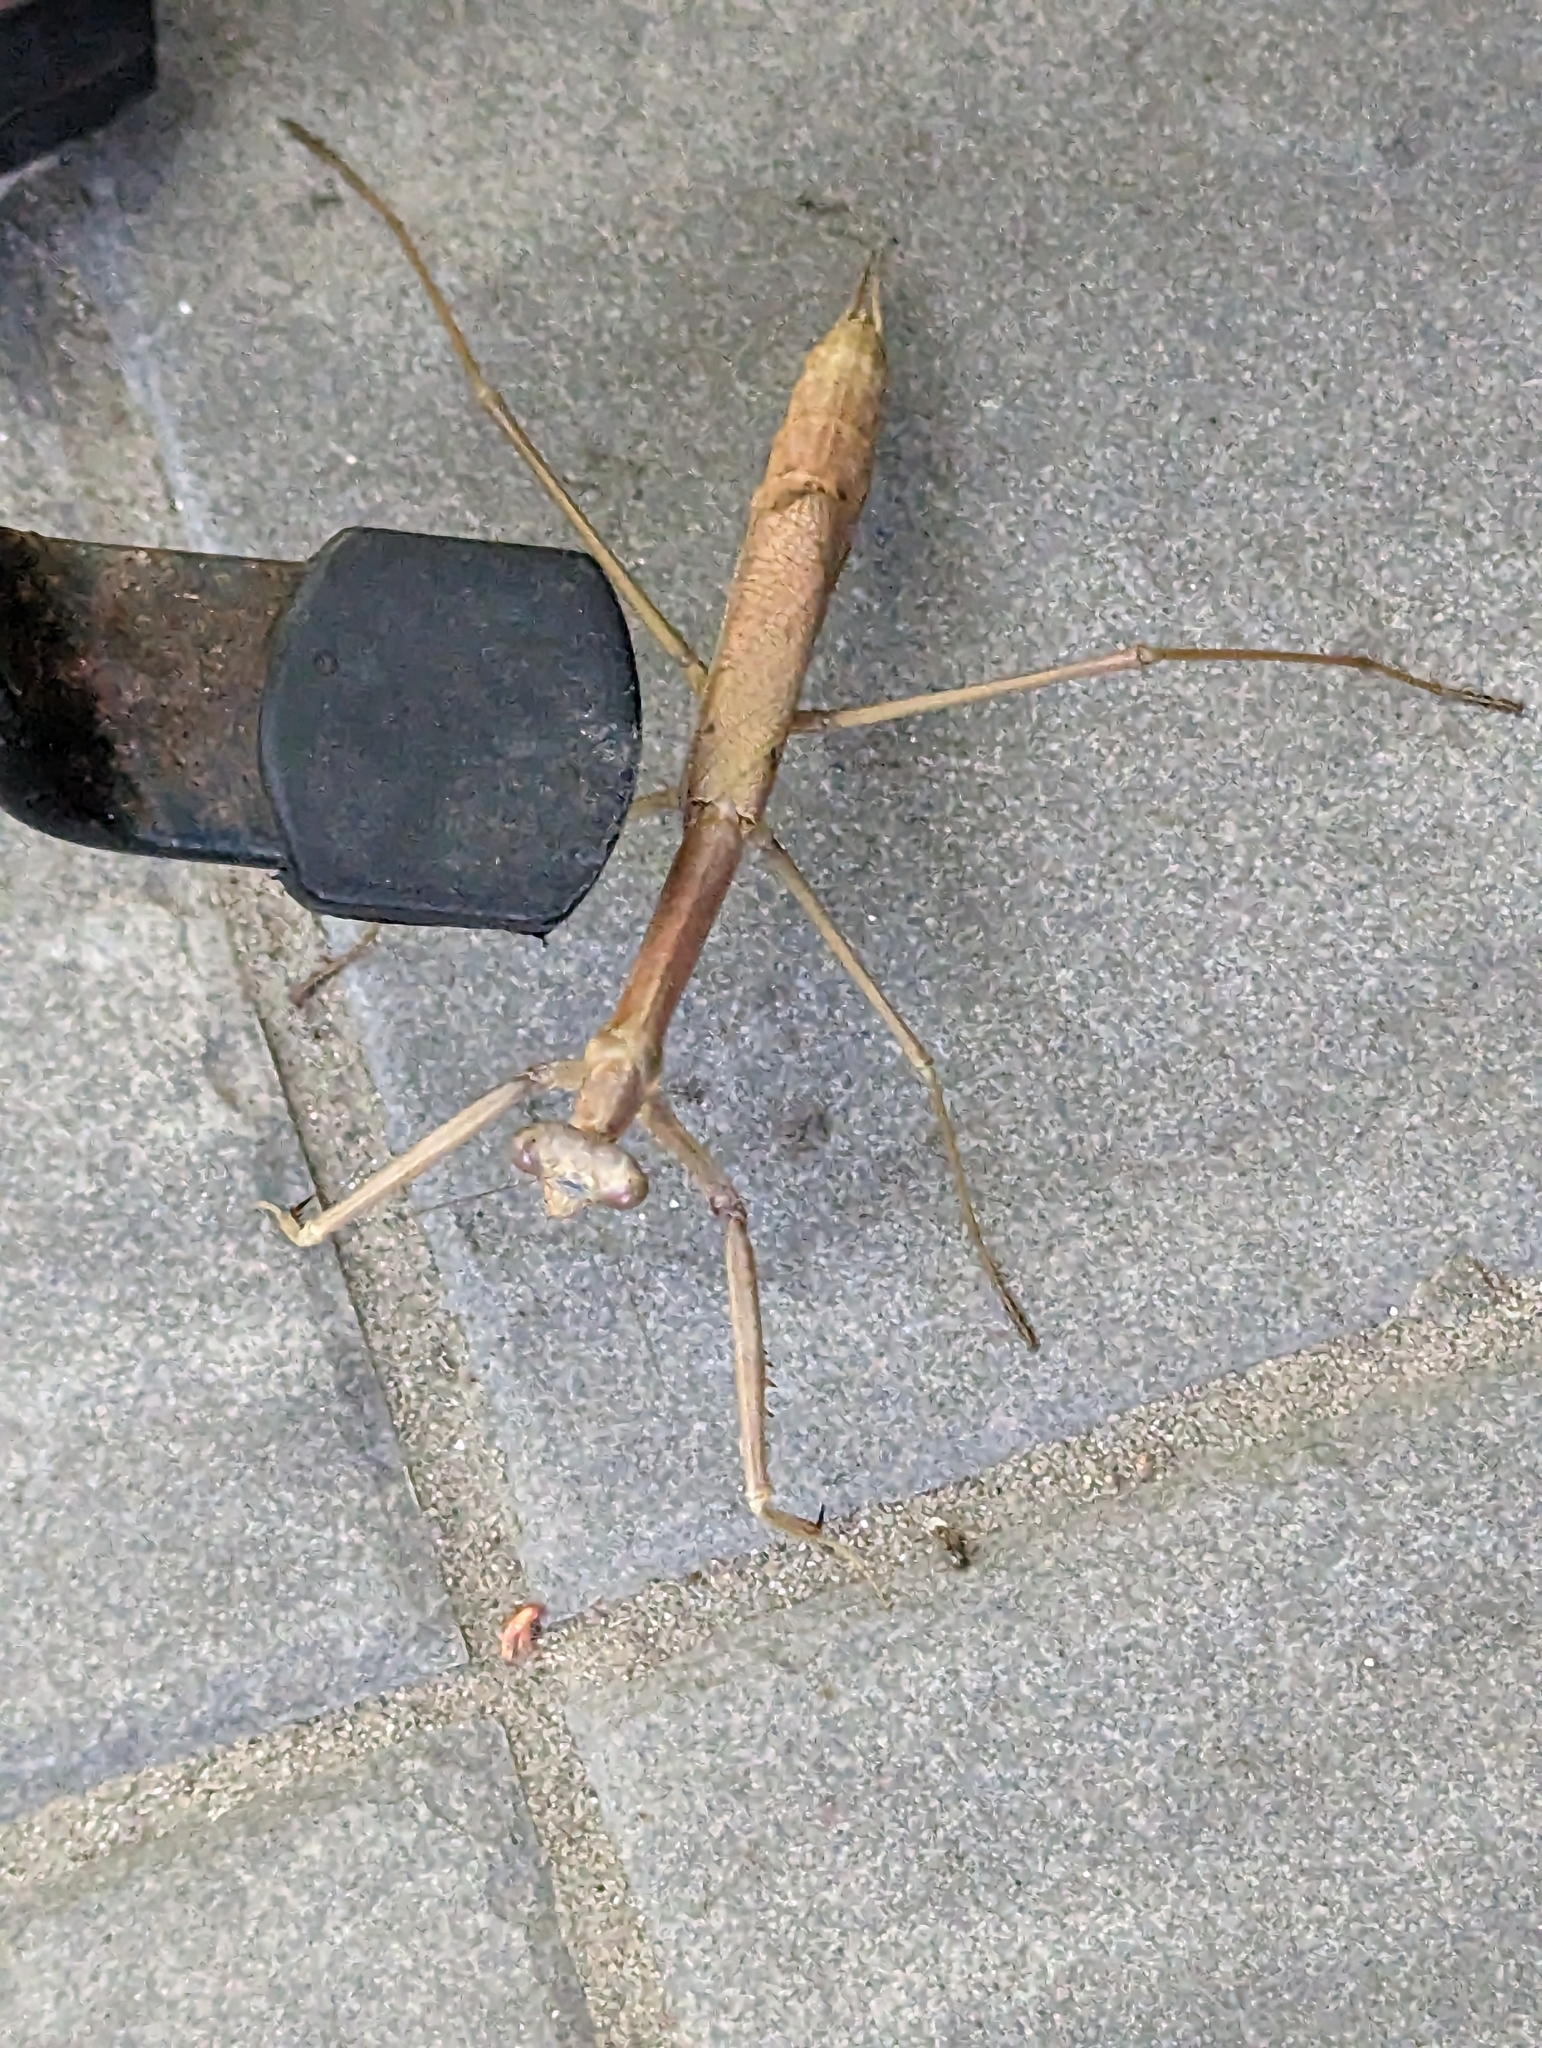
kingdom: Animalia
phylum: Arthropoda
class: Insecta
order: Mantodea
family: Mantidae
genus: Archimantis
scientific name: Archimantis latistyla
